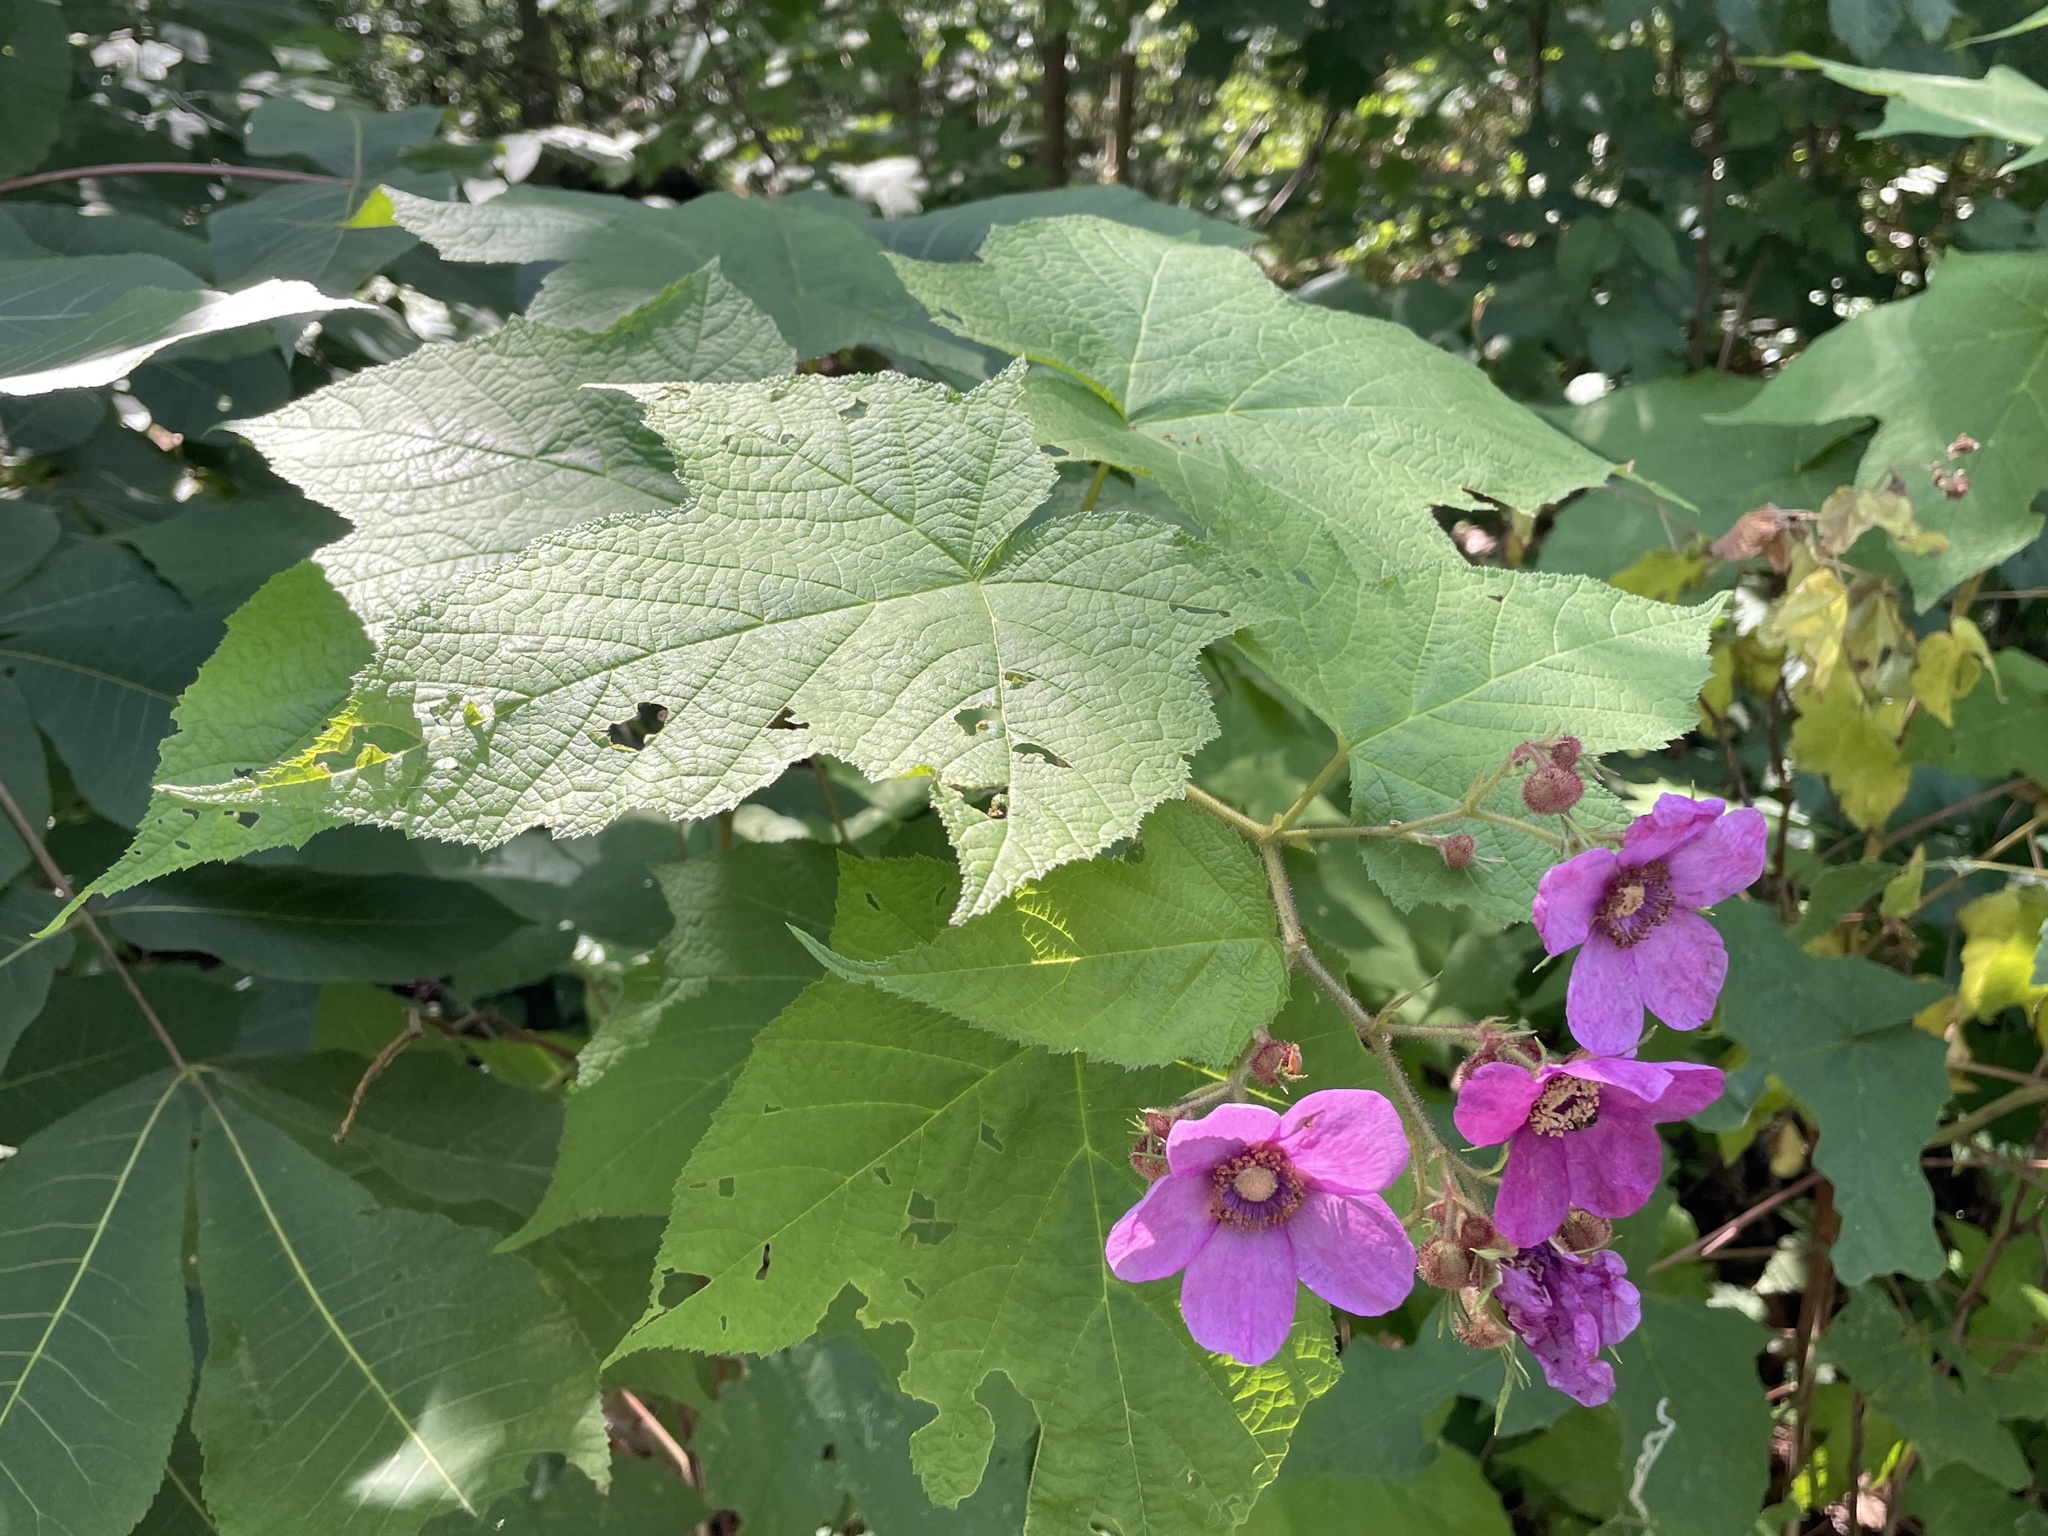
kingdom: Plantae
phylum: Tracheophyta
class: Magnoliopsida
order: Rosales
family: Rosaceae
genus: Rubus
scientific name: Rubus odoratus
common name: Purple-flowered raspberry
